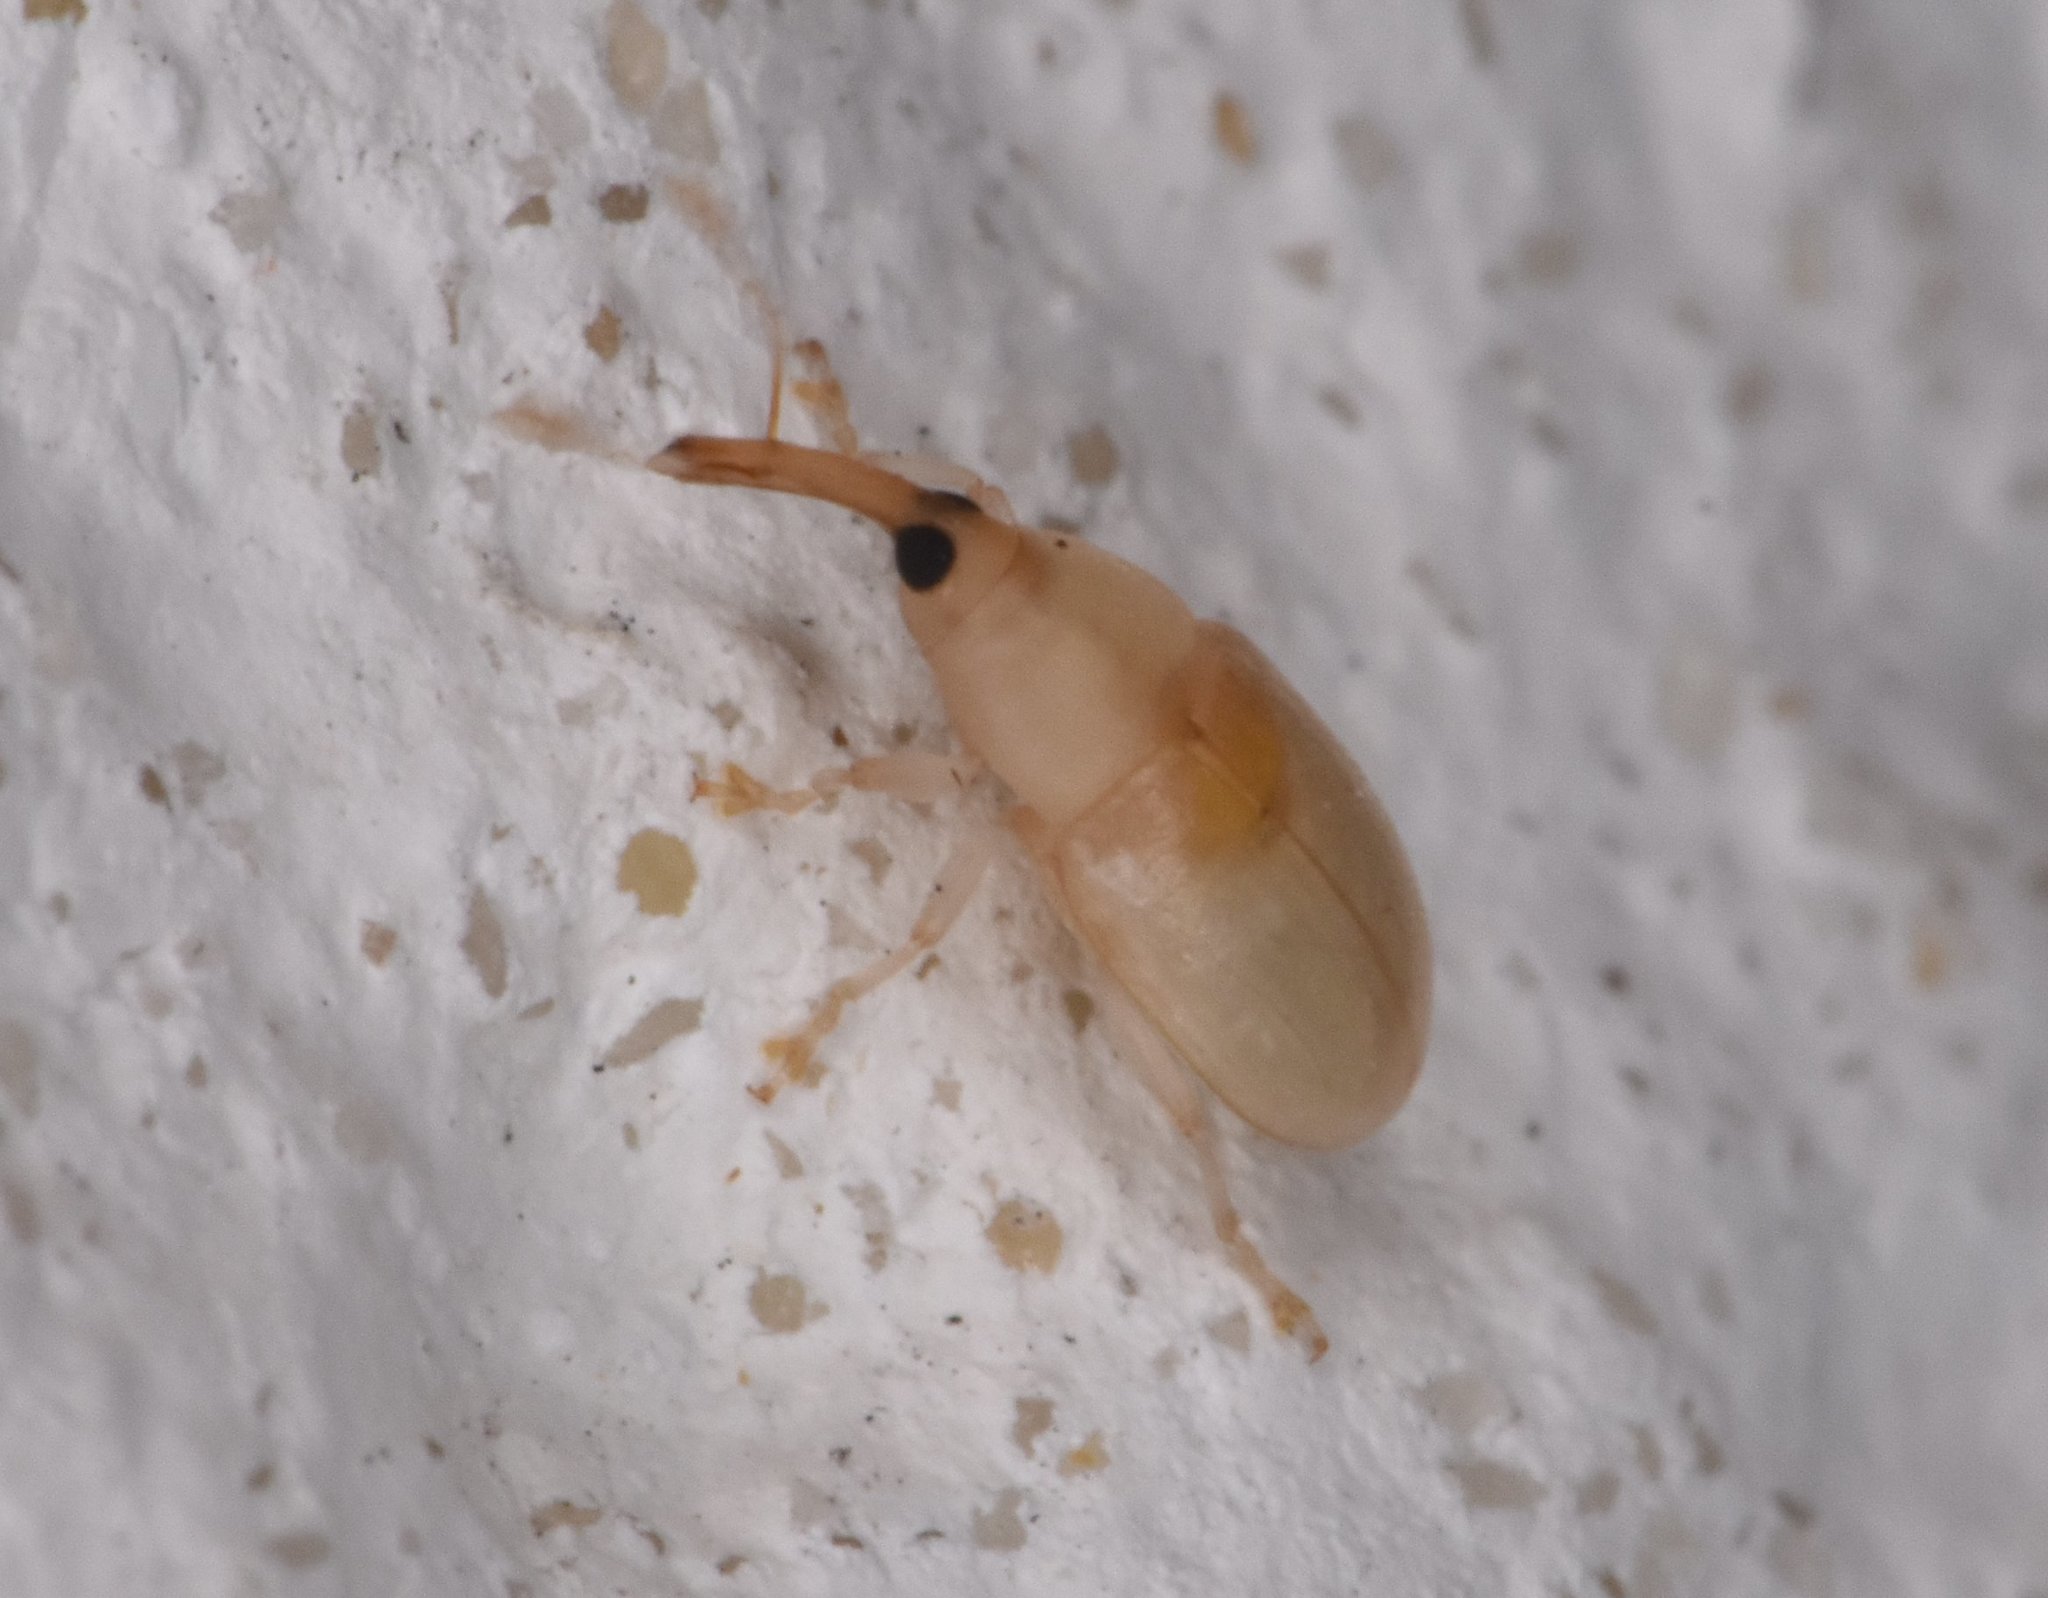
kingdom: Animalia
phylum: Arthropoda
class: Insecta
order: Coleoptera
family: Curculionidae
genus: Notolomus
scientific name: Notolomus basalis
